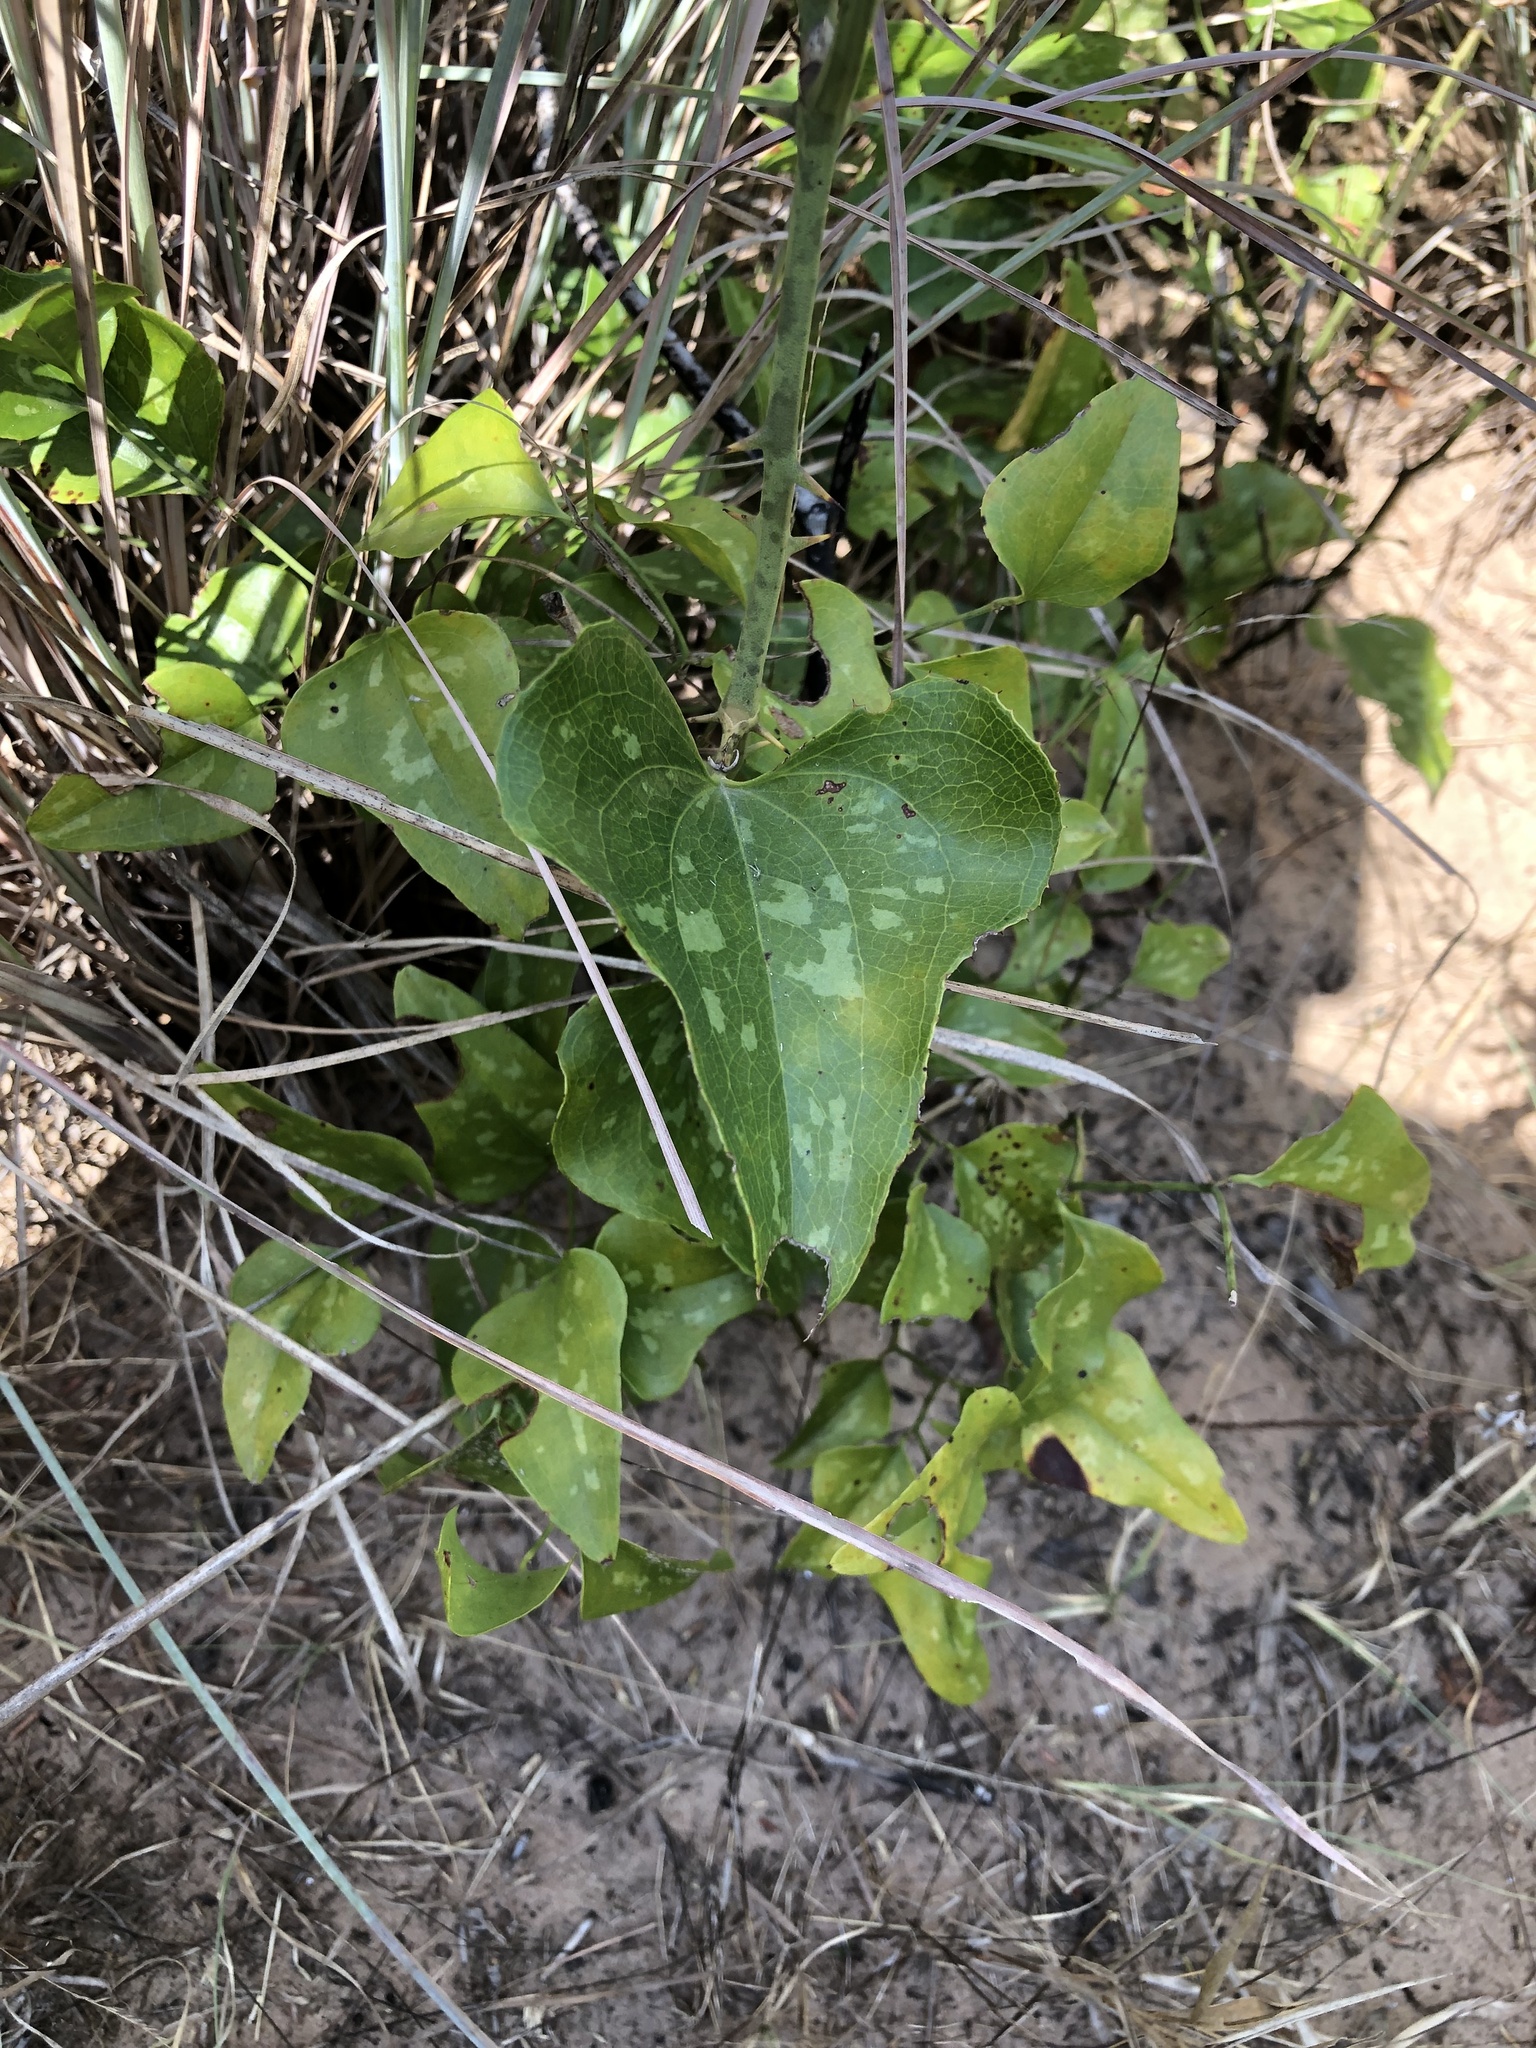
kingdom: Plantae
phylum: Tracheophyta
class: Liliopsida
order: Liliales
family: Smilacaceae
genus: Smilax
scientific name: Smilax bona-nox
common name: Catbrier
